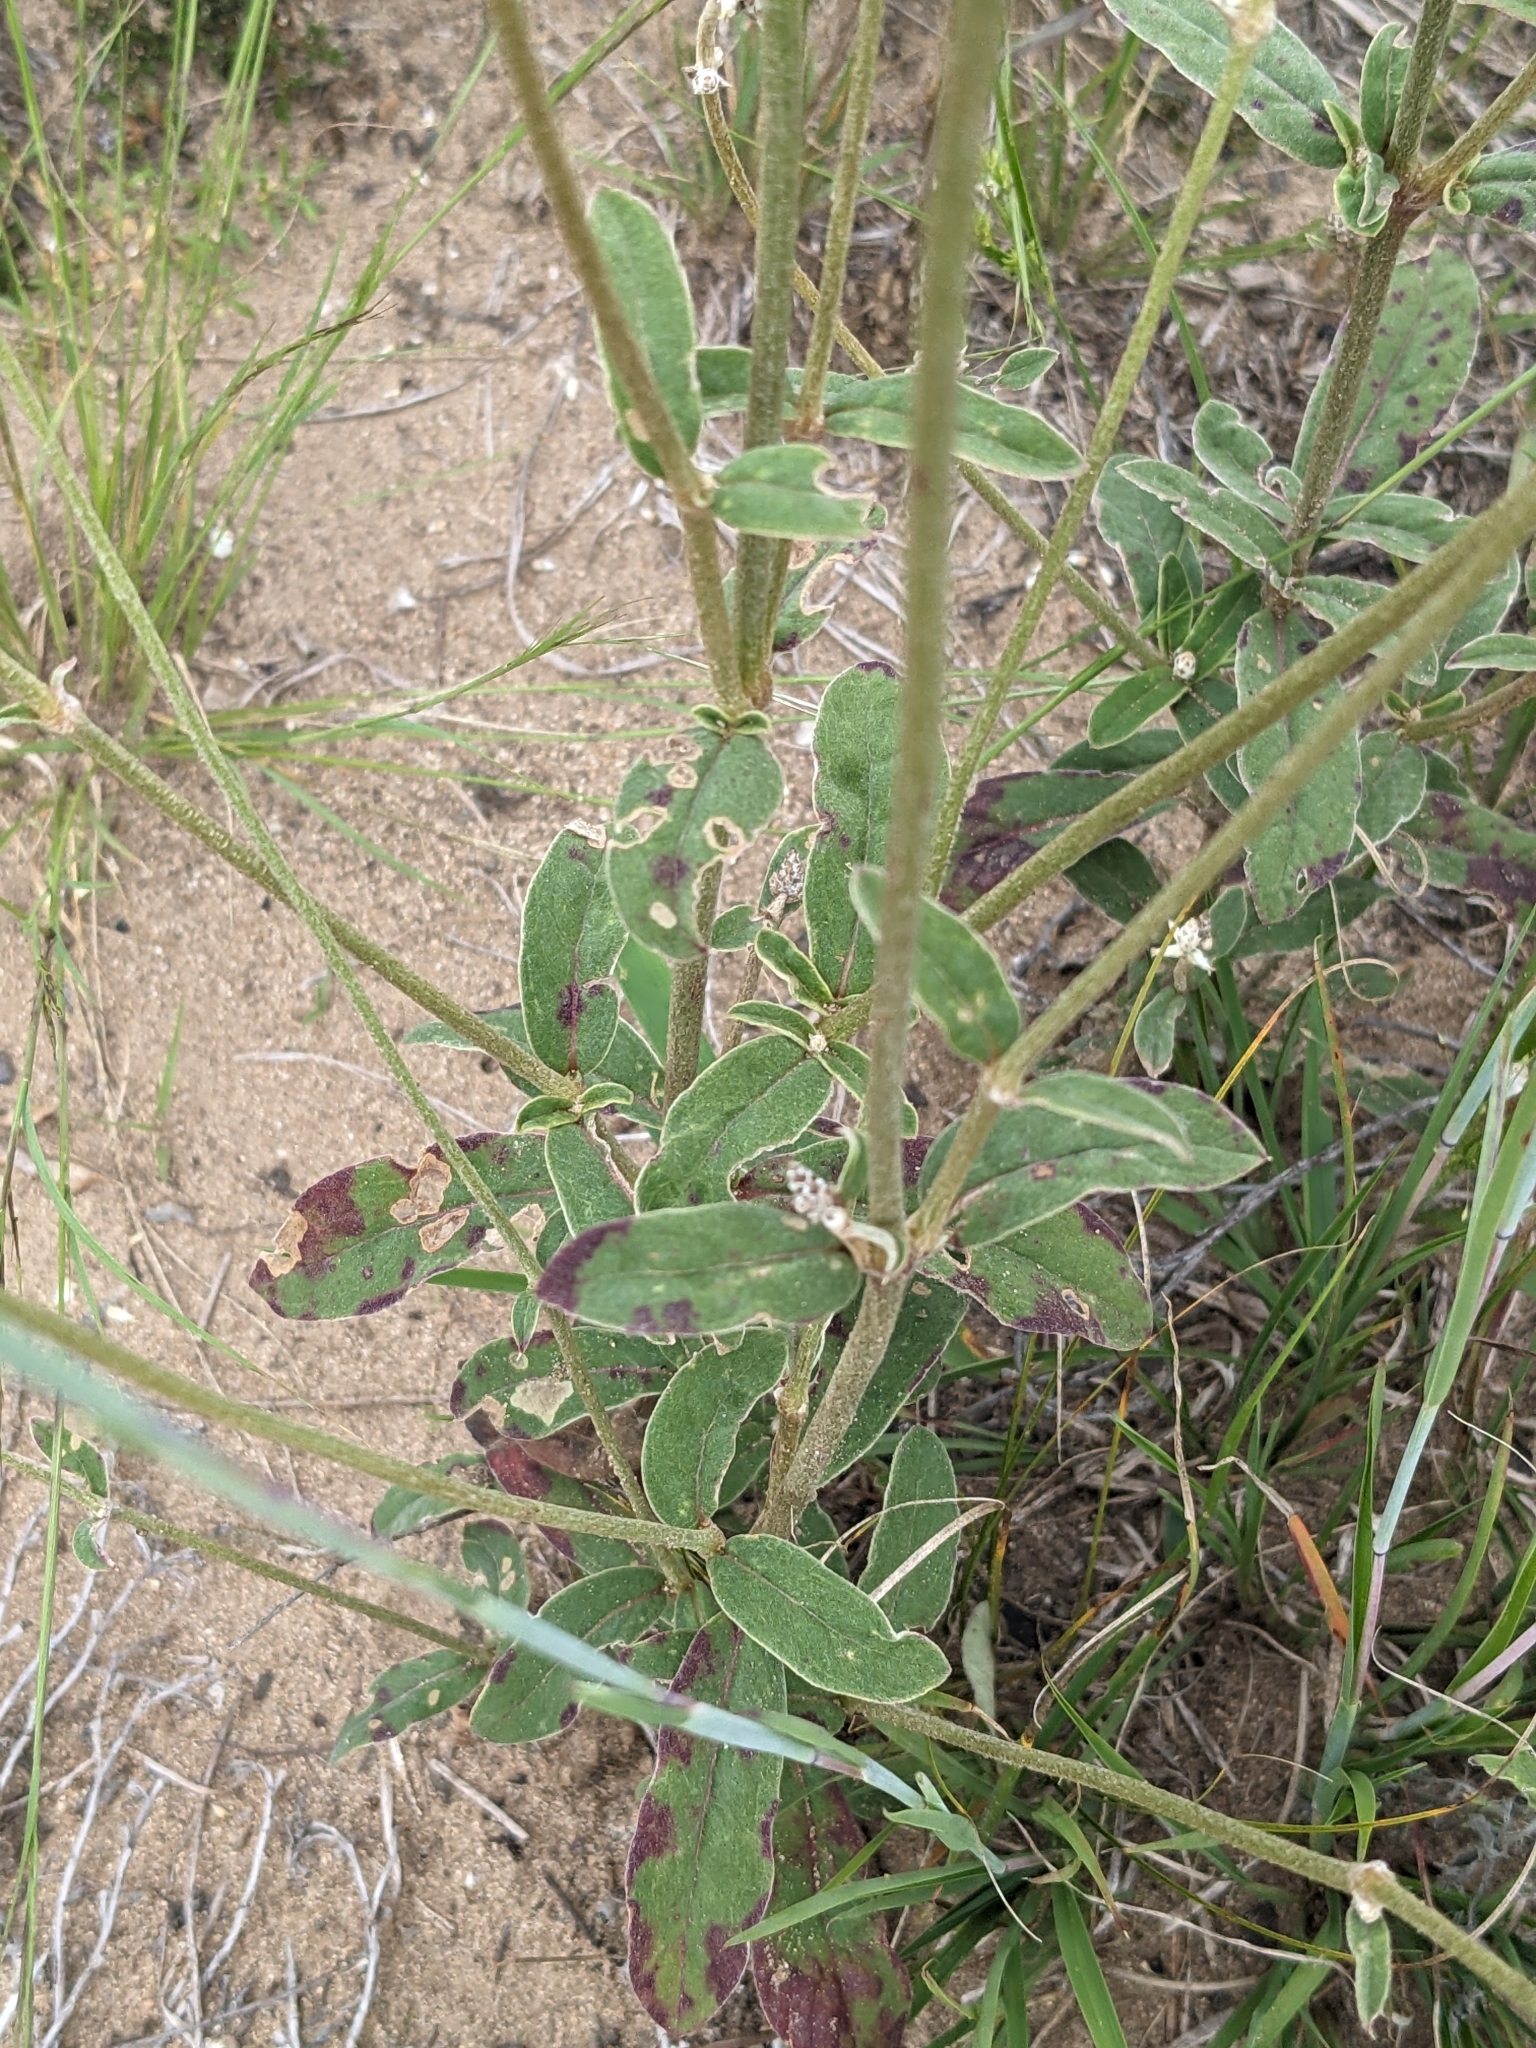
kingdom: Plantae
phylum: Tracheophyta
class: Magnoliopsida
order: Caryophyllales
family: Amaranthaceae
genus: Froelichia
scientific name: Froelichia floridana
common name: Florida snake-cotton
